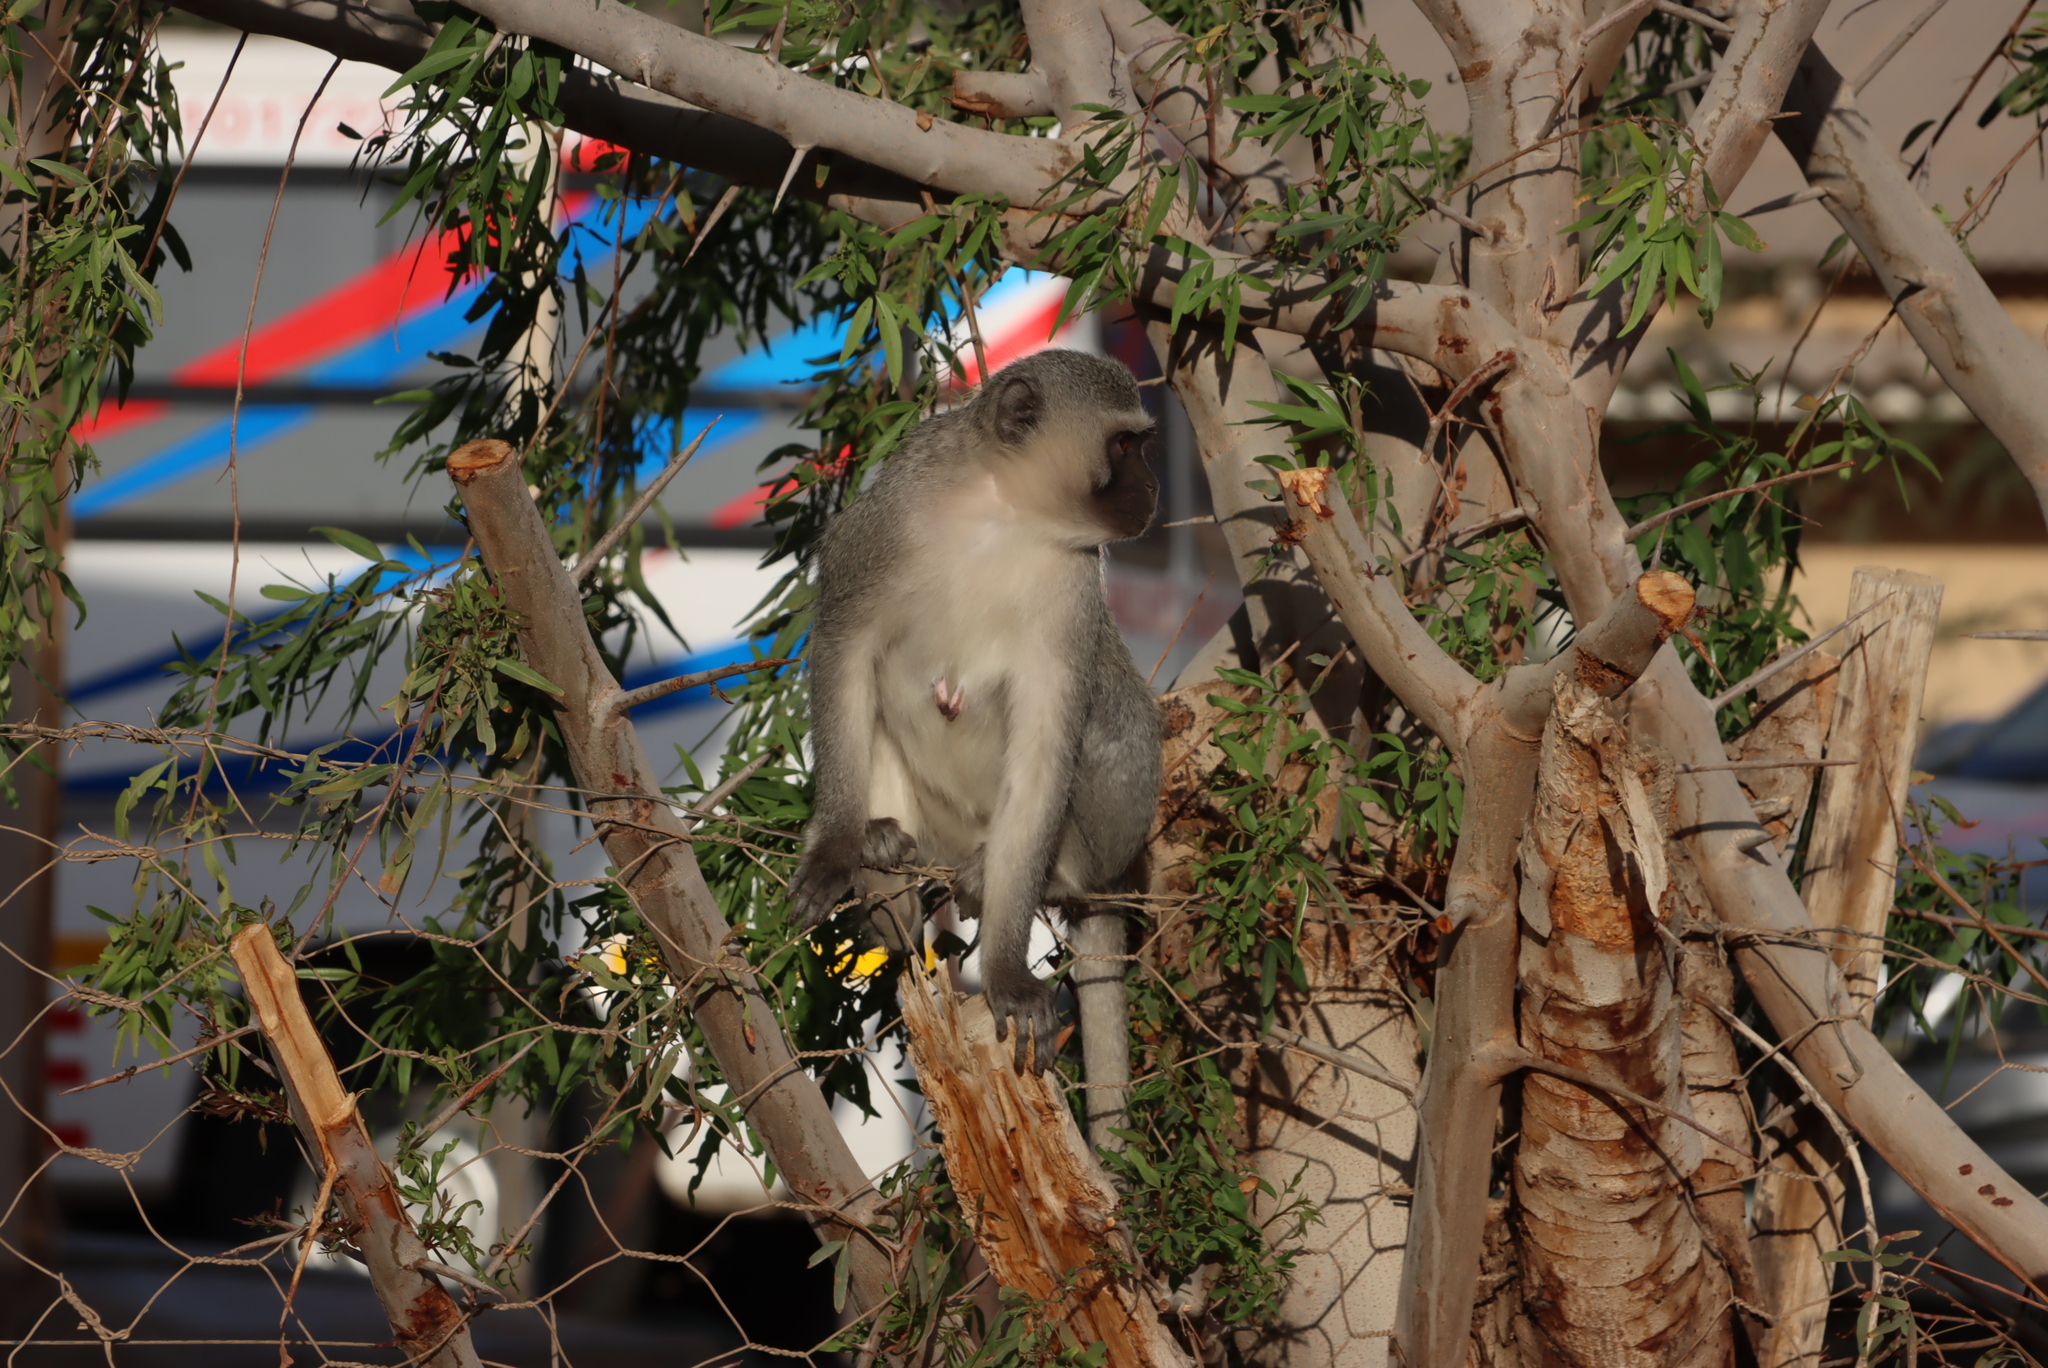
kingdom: Animalia
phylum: Chordata
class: Mammalia
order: Primates
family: Cercopithecidae
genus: Chlorocebus
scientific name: Chlorocebus pygerythrus
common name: Vervet monkey
